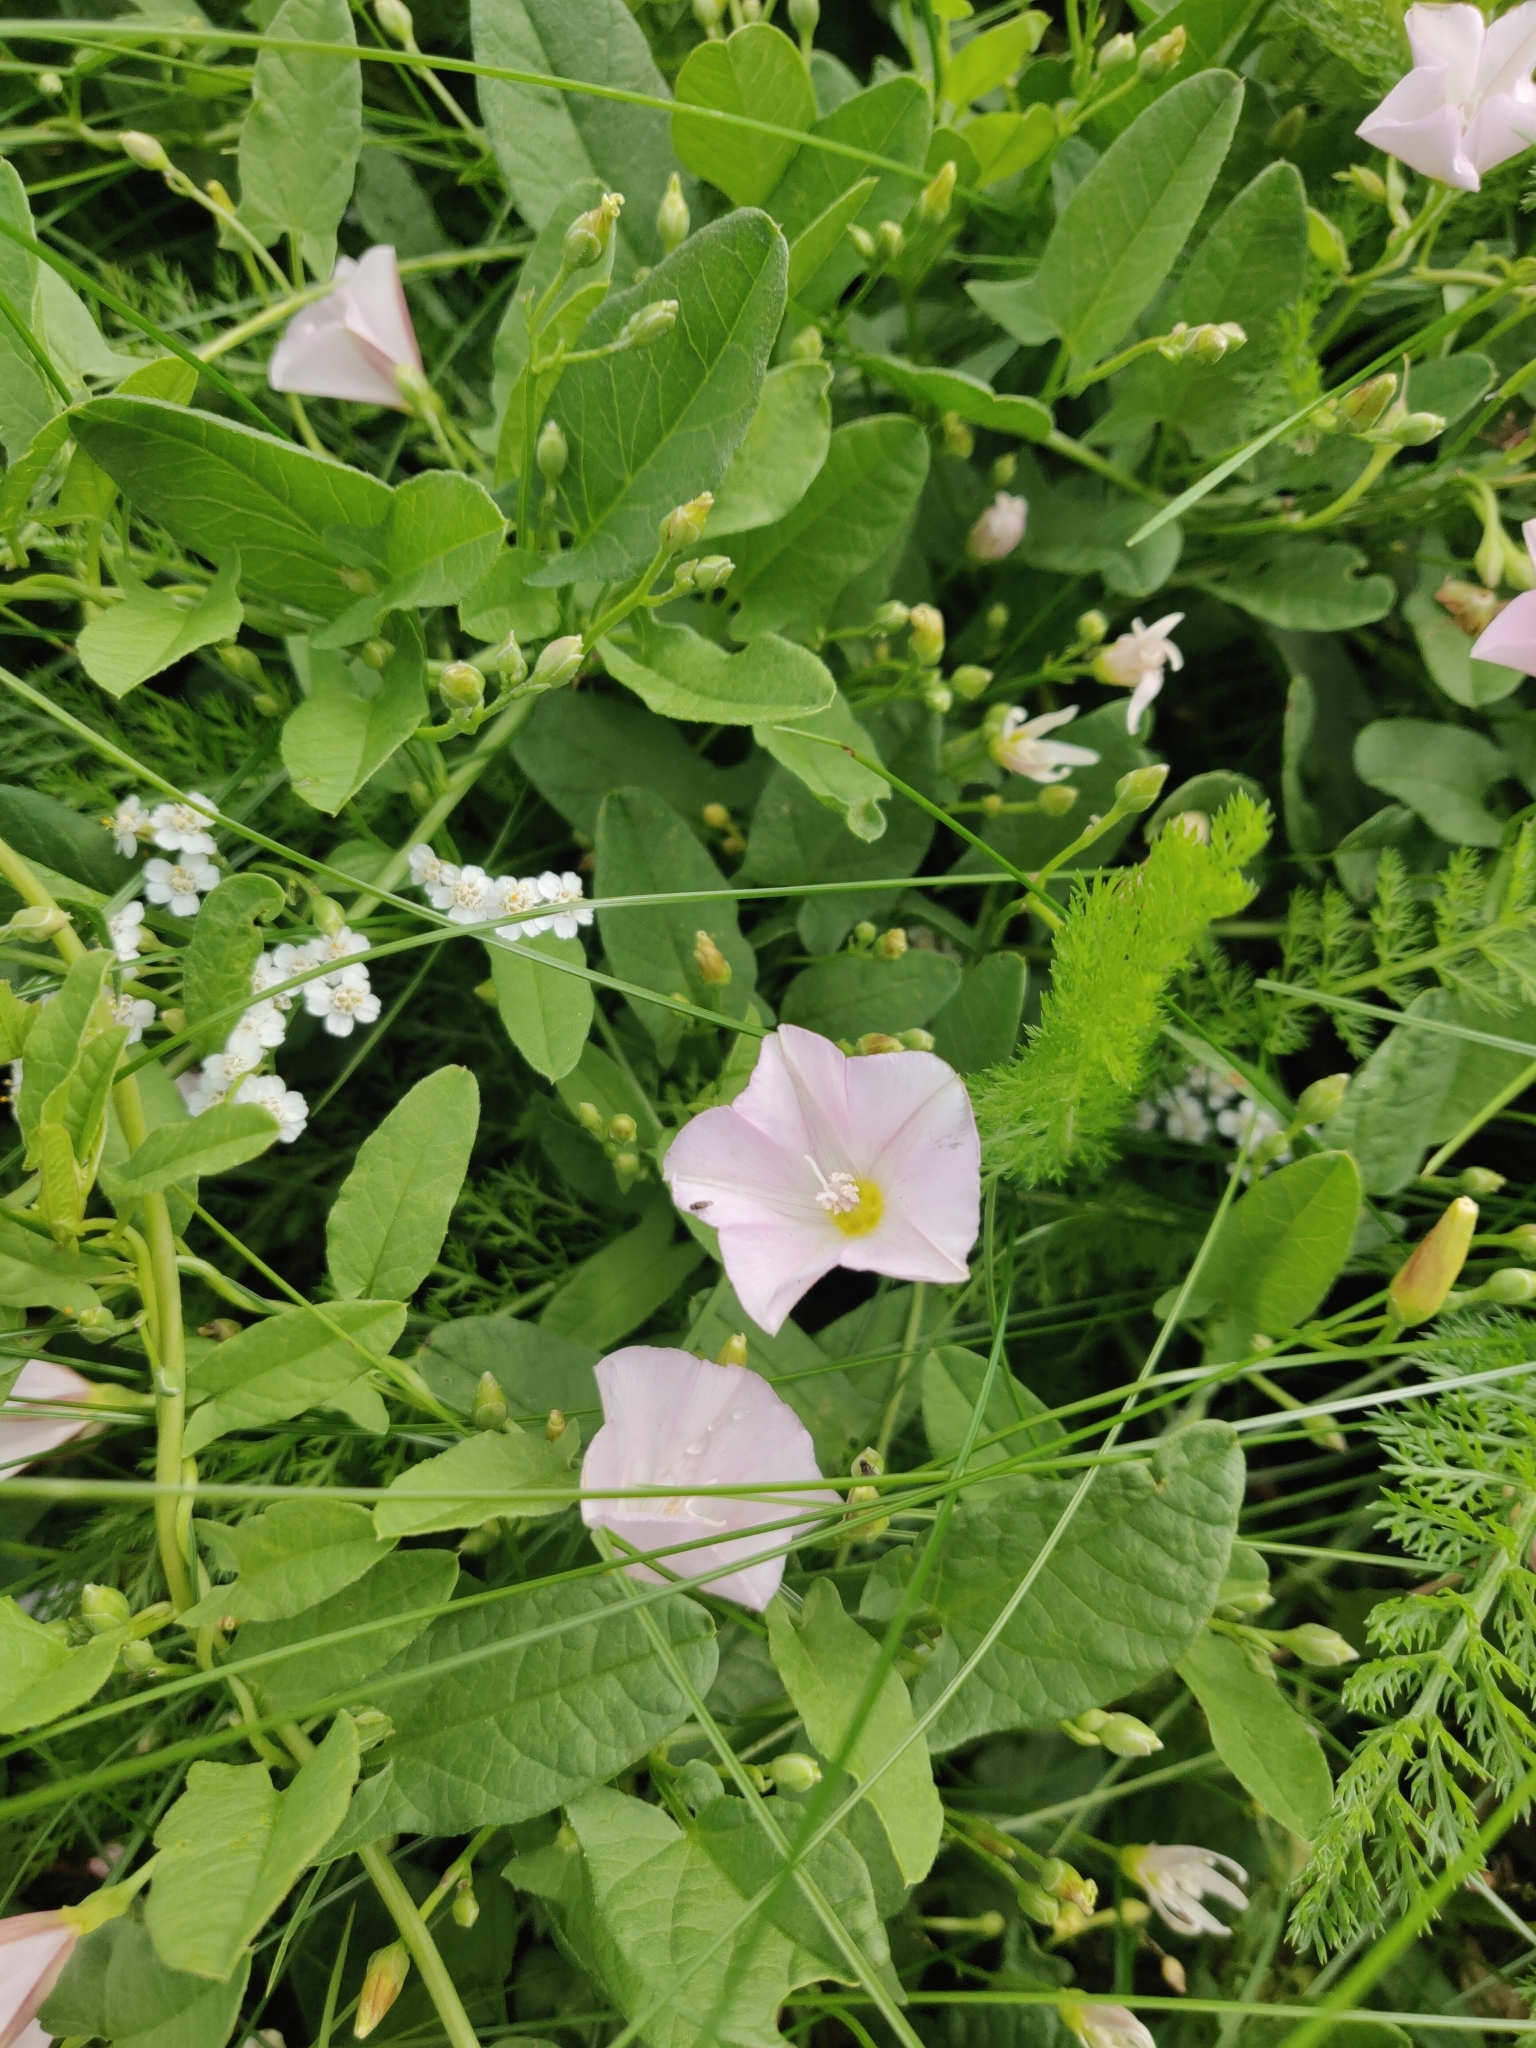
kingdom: Plantae
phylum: Tracheophyta
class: Magnoliopsida
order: Solanales
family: Convolvulaceae
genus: Convolvulus
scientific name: Convolvulus arvensis
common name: Field bindweed
